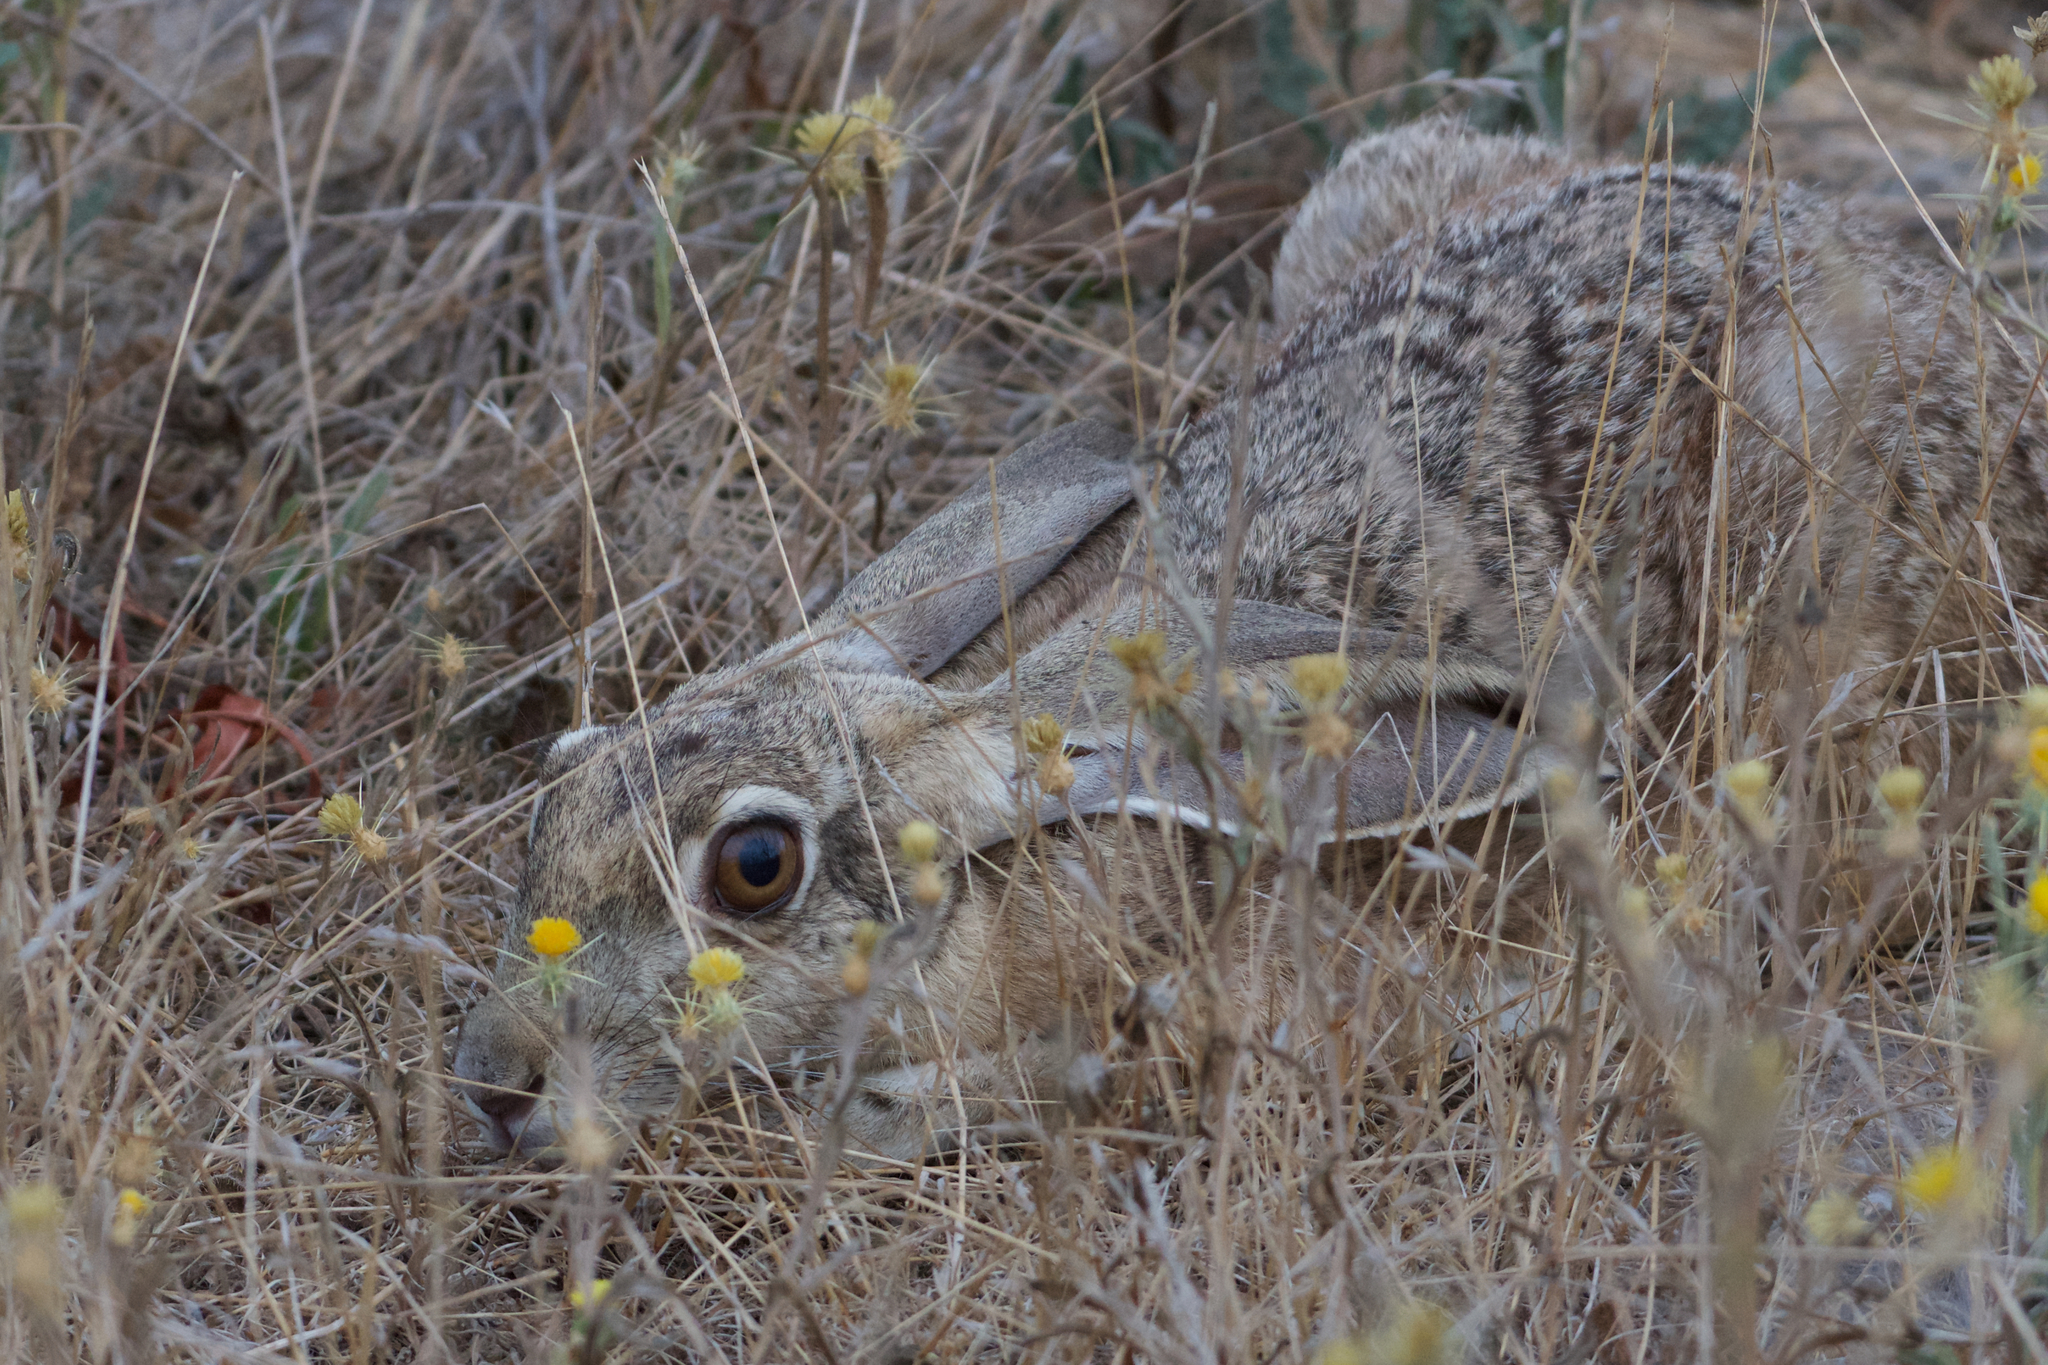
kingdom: Animalia
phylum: Chordata
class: Mammalia
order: Lagomorpha
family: Leporidae
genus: Lepus
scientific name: Lepus californicus
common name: Black-tailed jackrabbit
